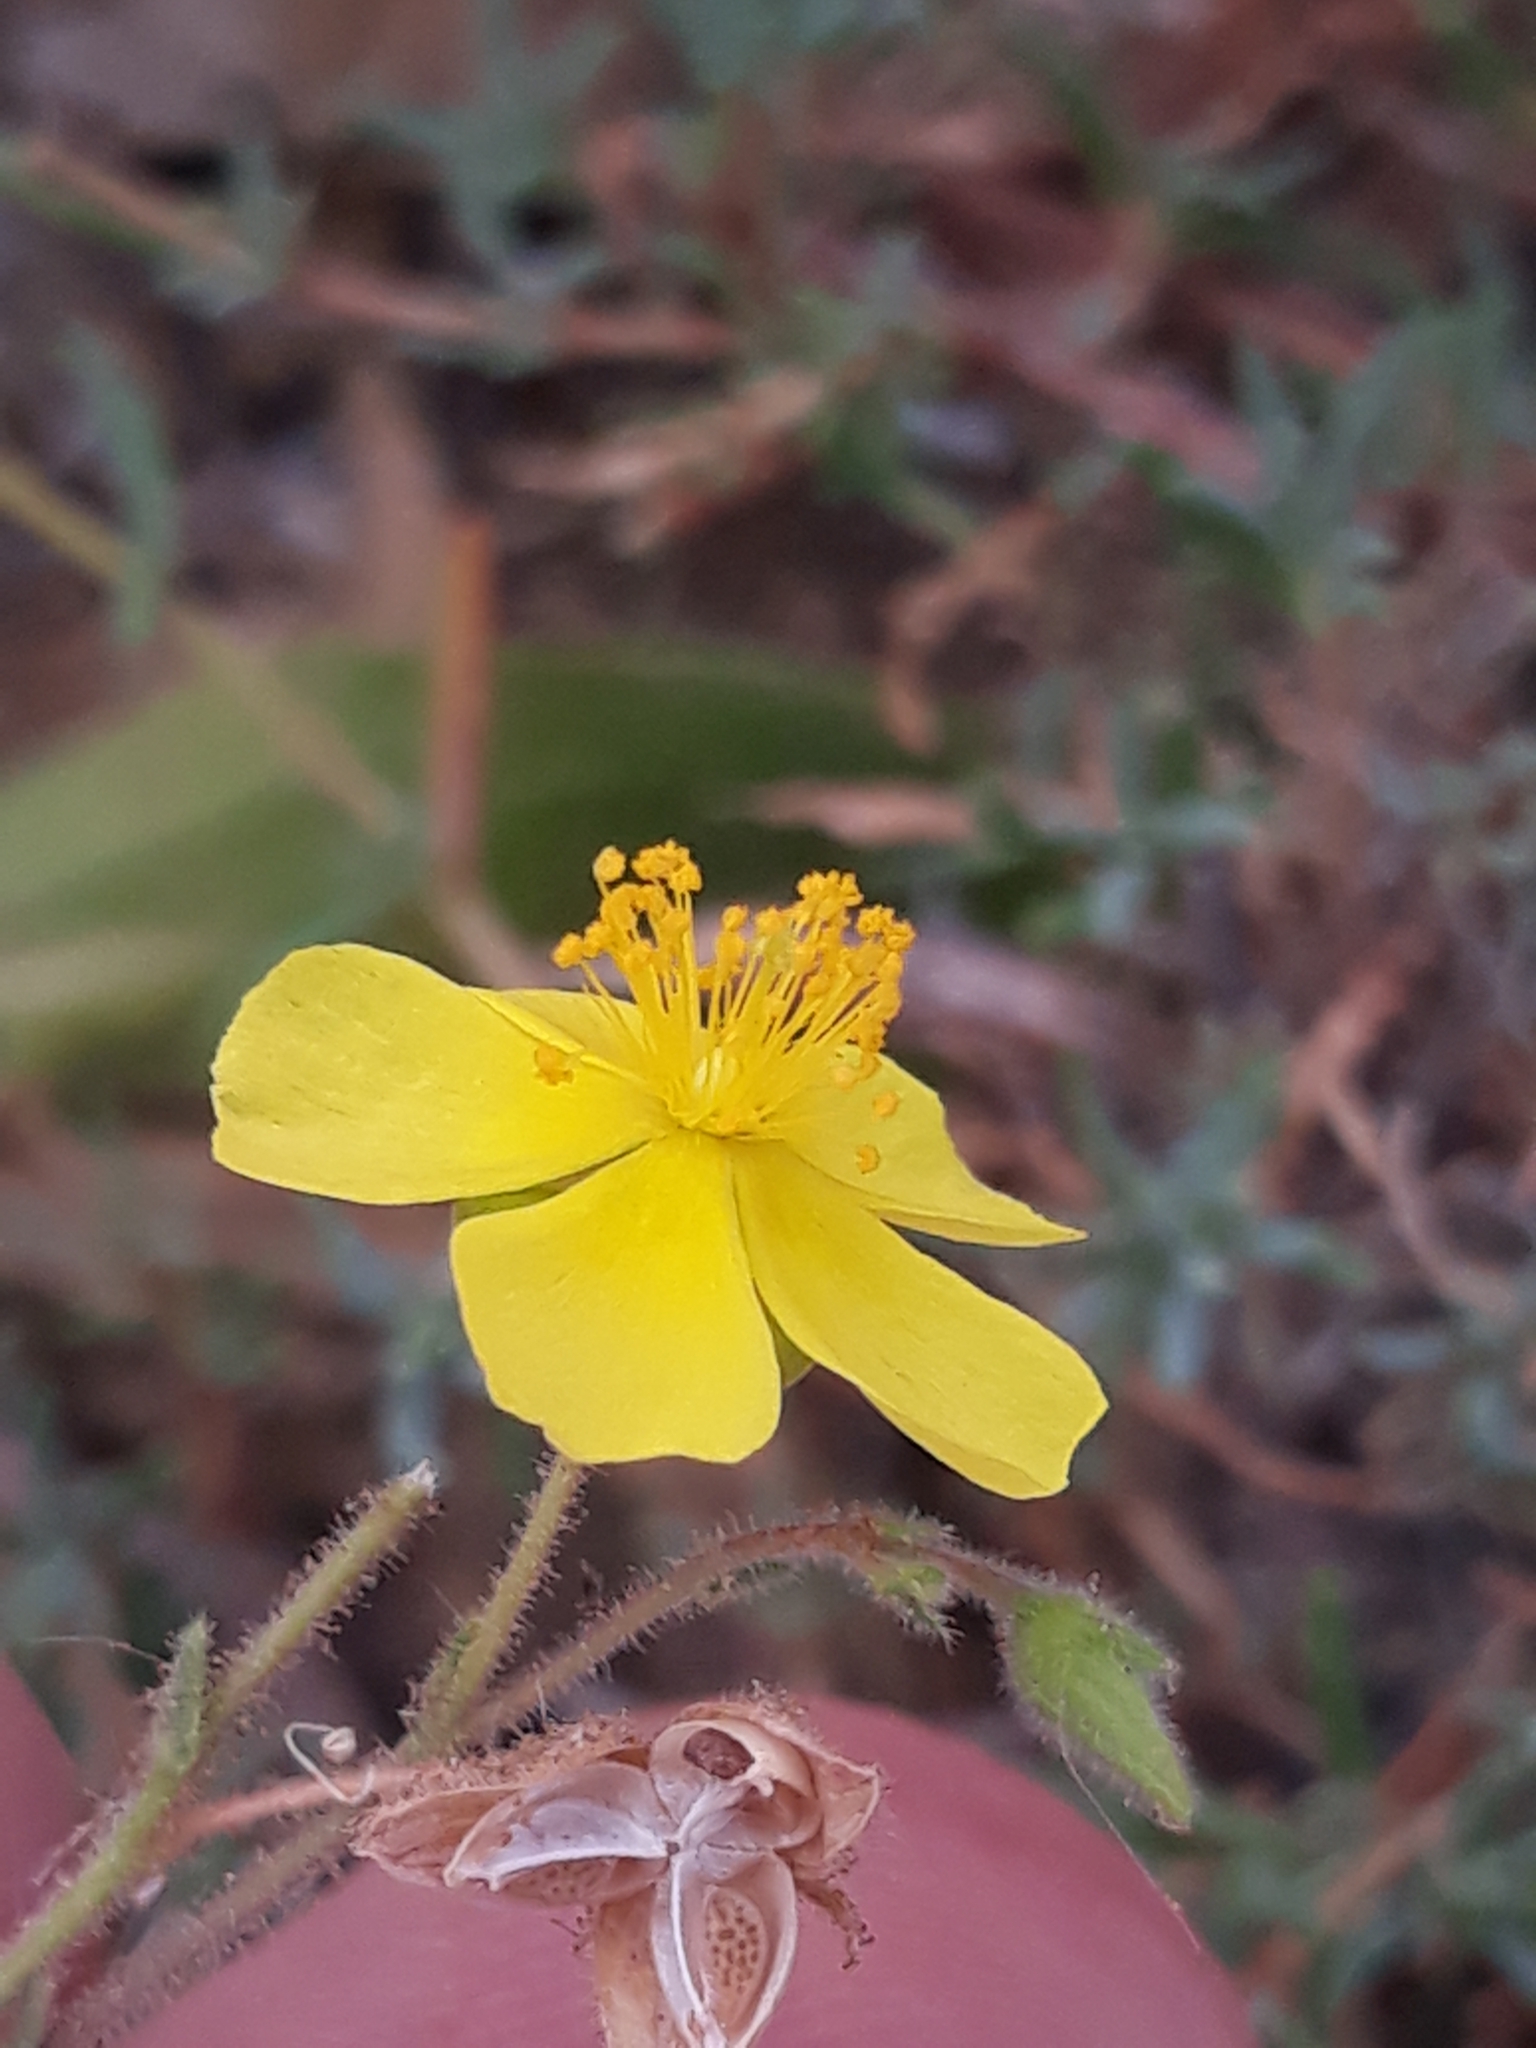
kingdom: Plantae
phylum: Tracheophyta
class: Magnoliopsida
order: Malvales
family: Cistaceae
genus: Fumana
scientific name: Fumana laevis
